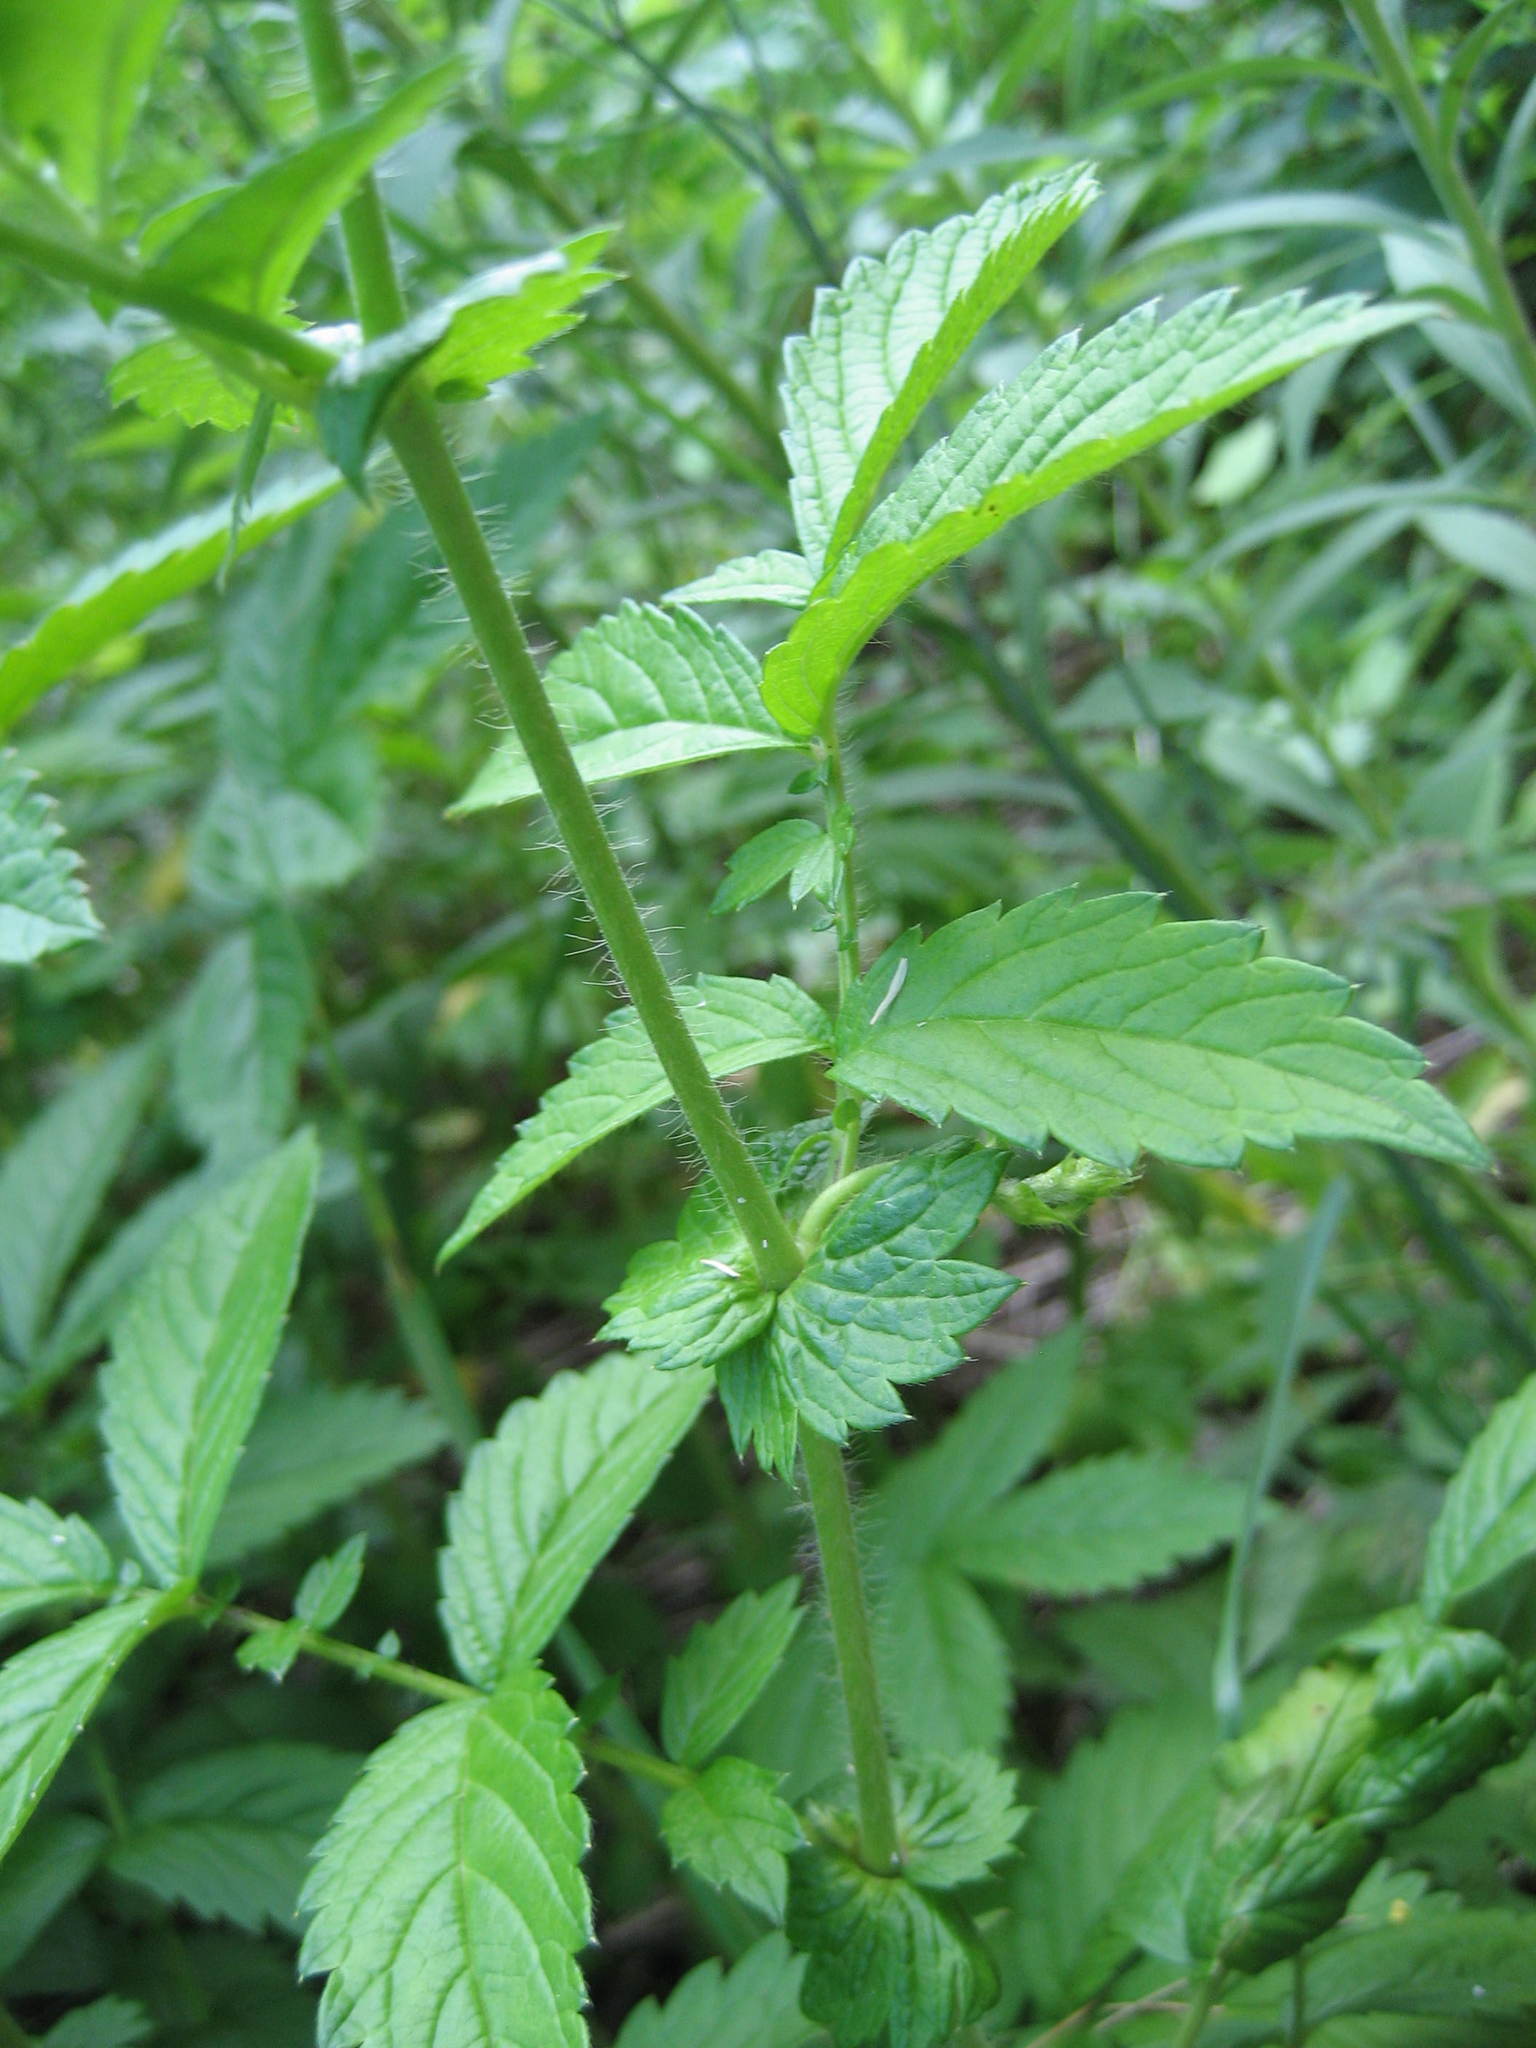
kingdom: Plantae
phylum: Tracheophyta
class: Magnoliopsida
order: Rosales
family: Rosaceae
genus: Agrimonia
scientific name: Agrimonia gryposepala
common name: Common agrimony
